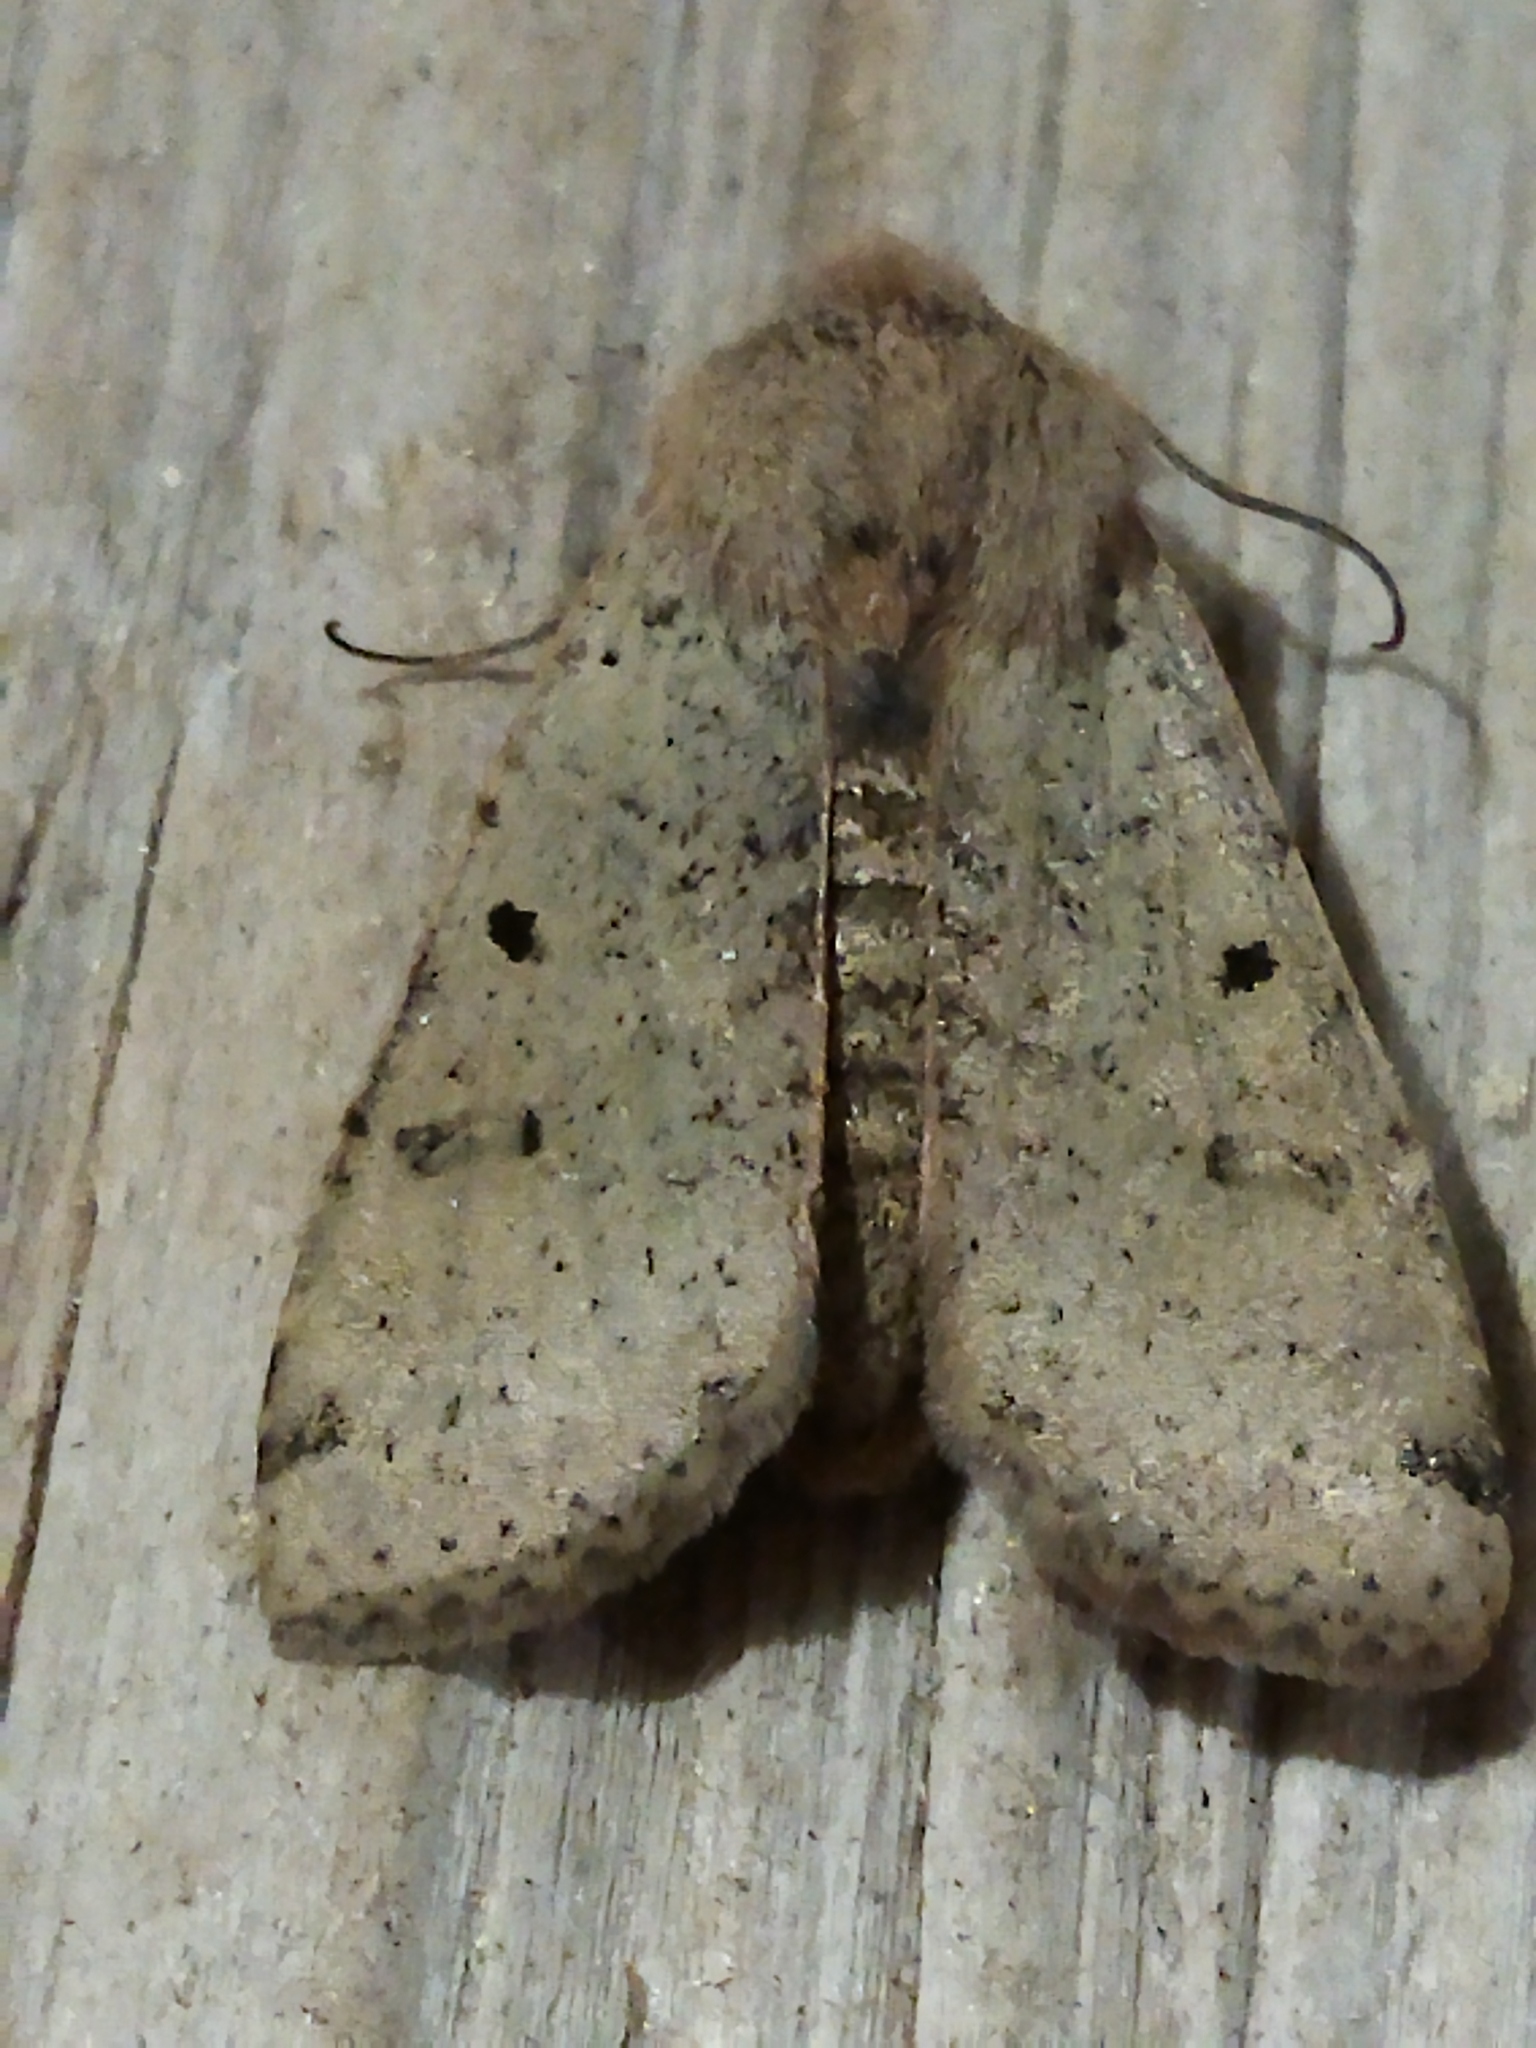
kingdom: Animalia
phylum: Arthropoda
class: Insecta
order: Lepidoptera
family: Noctuidae
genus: Agrochola
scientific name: Agrochola lychnidis
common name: Beaded chestnut
